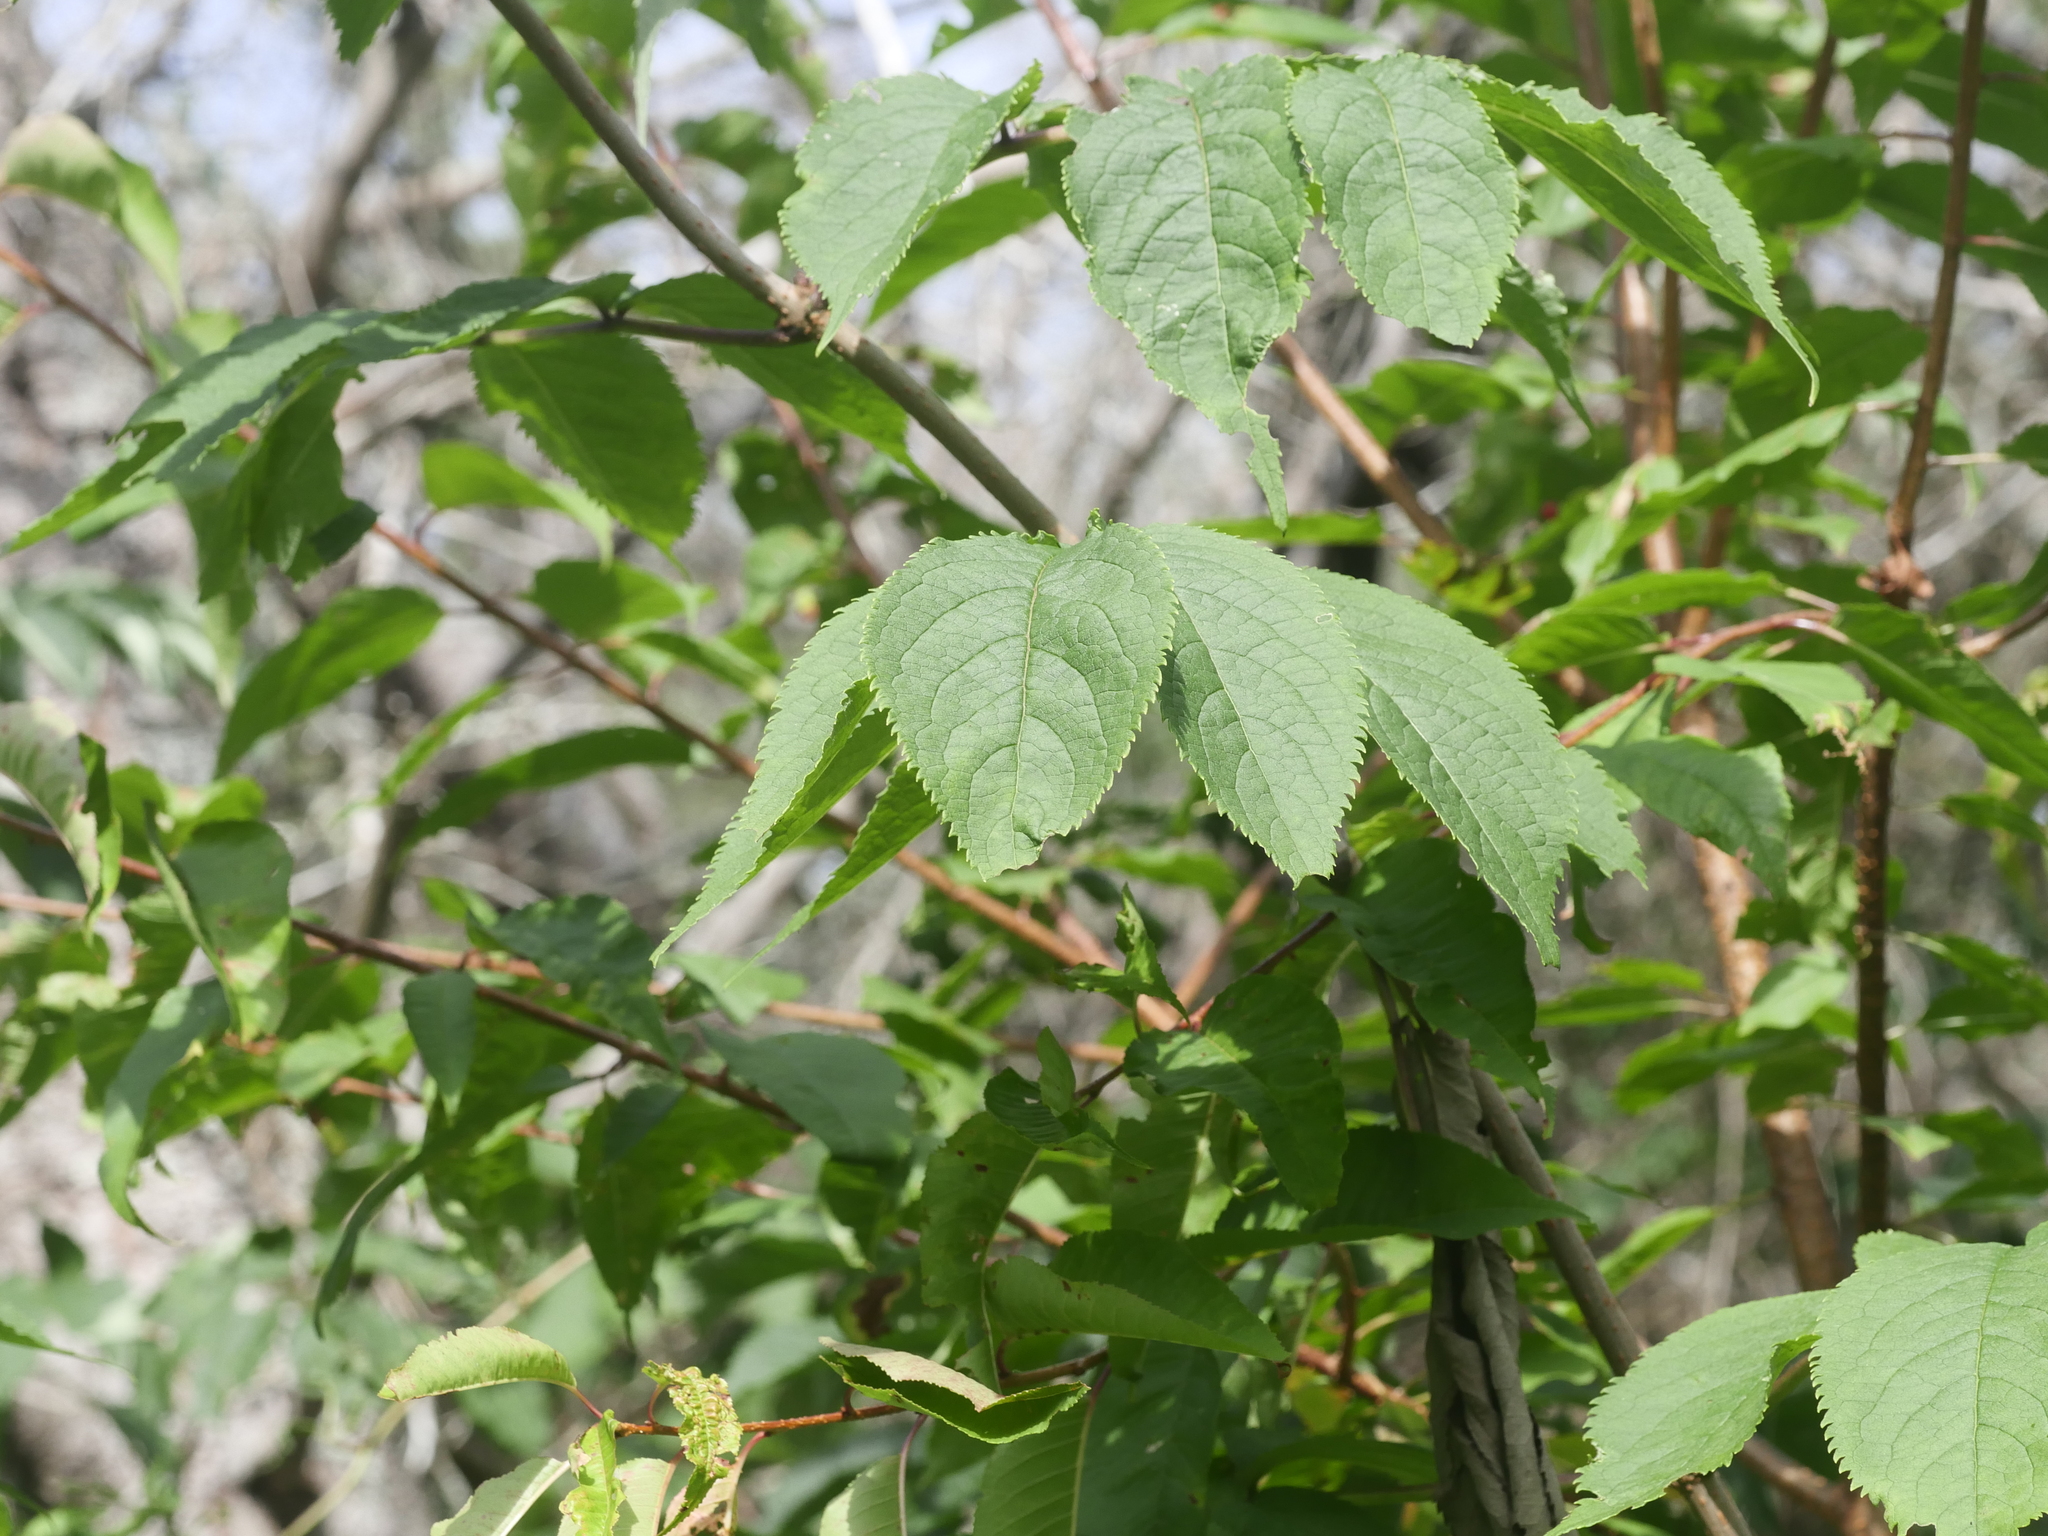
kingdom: Plantae
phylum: Tracheophyta
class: Magnoliopsida
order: Dipsacales
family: Viburnaceae
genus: Sambucus
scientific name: Sambucus racemosa
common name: Red-berried elder
